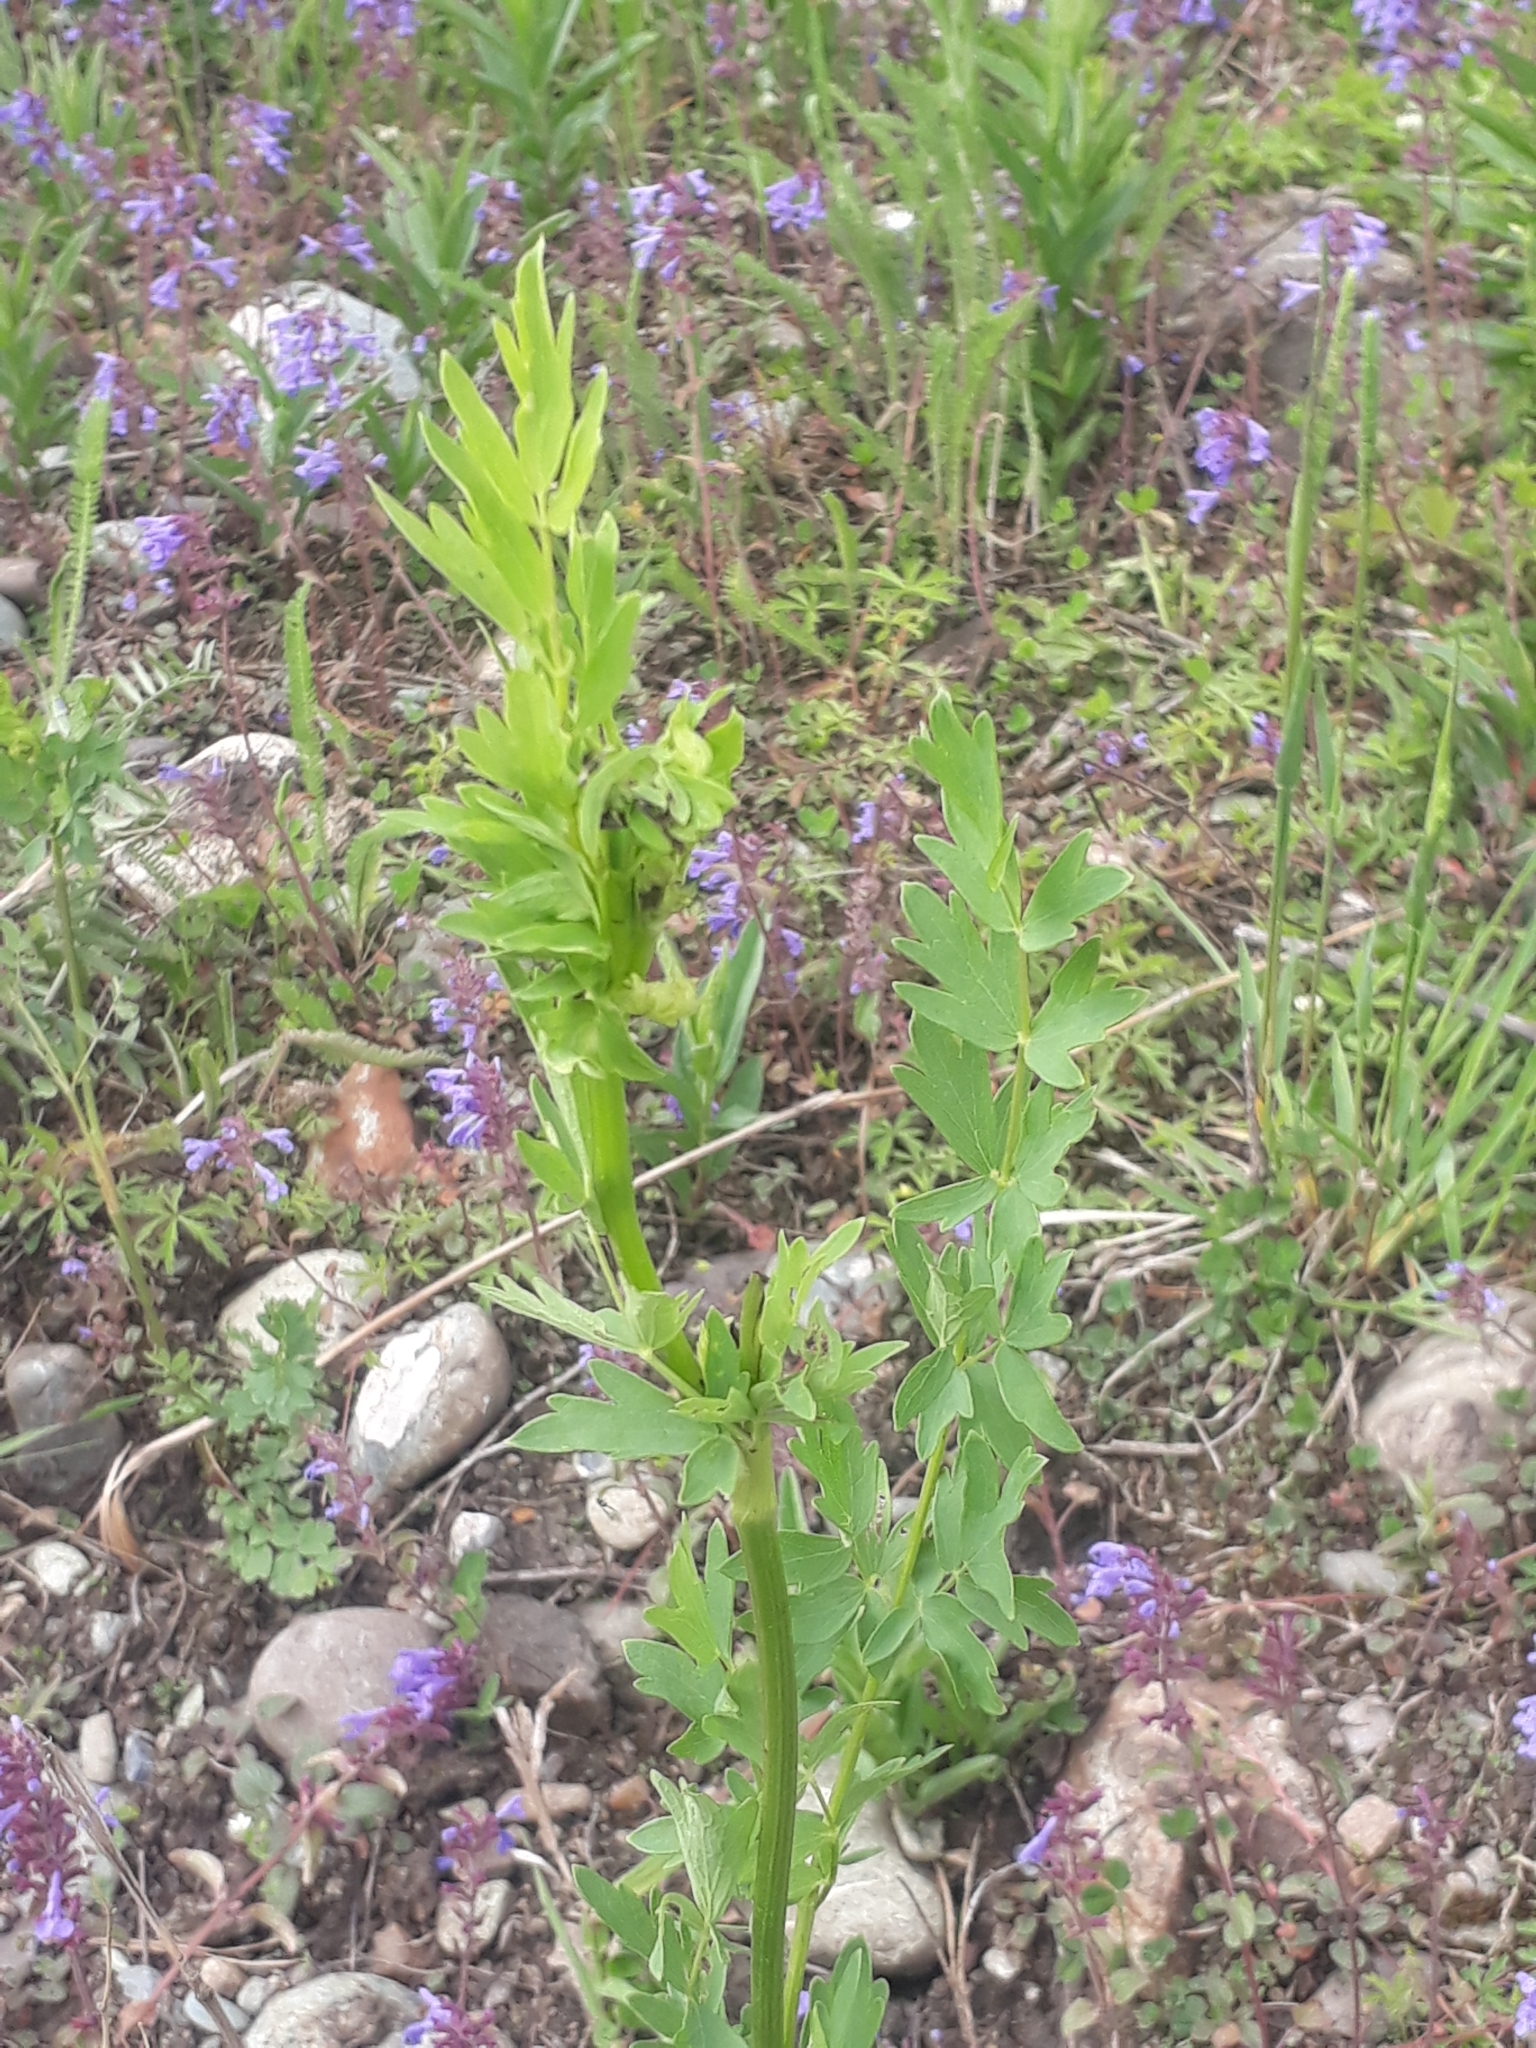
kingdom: Plantae
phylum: Tracheophyta
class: Magnoliopsida
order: Ranunculales
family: Ranunculaceae
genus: Thalictrum
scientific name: Thalictrum simplex
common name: Small meadow-rue
